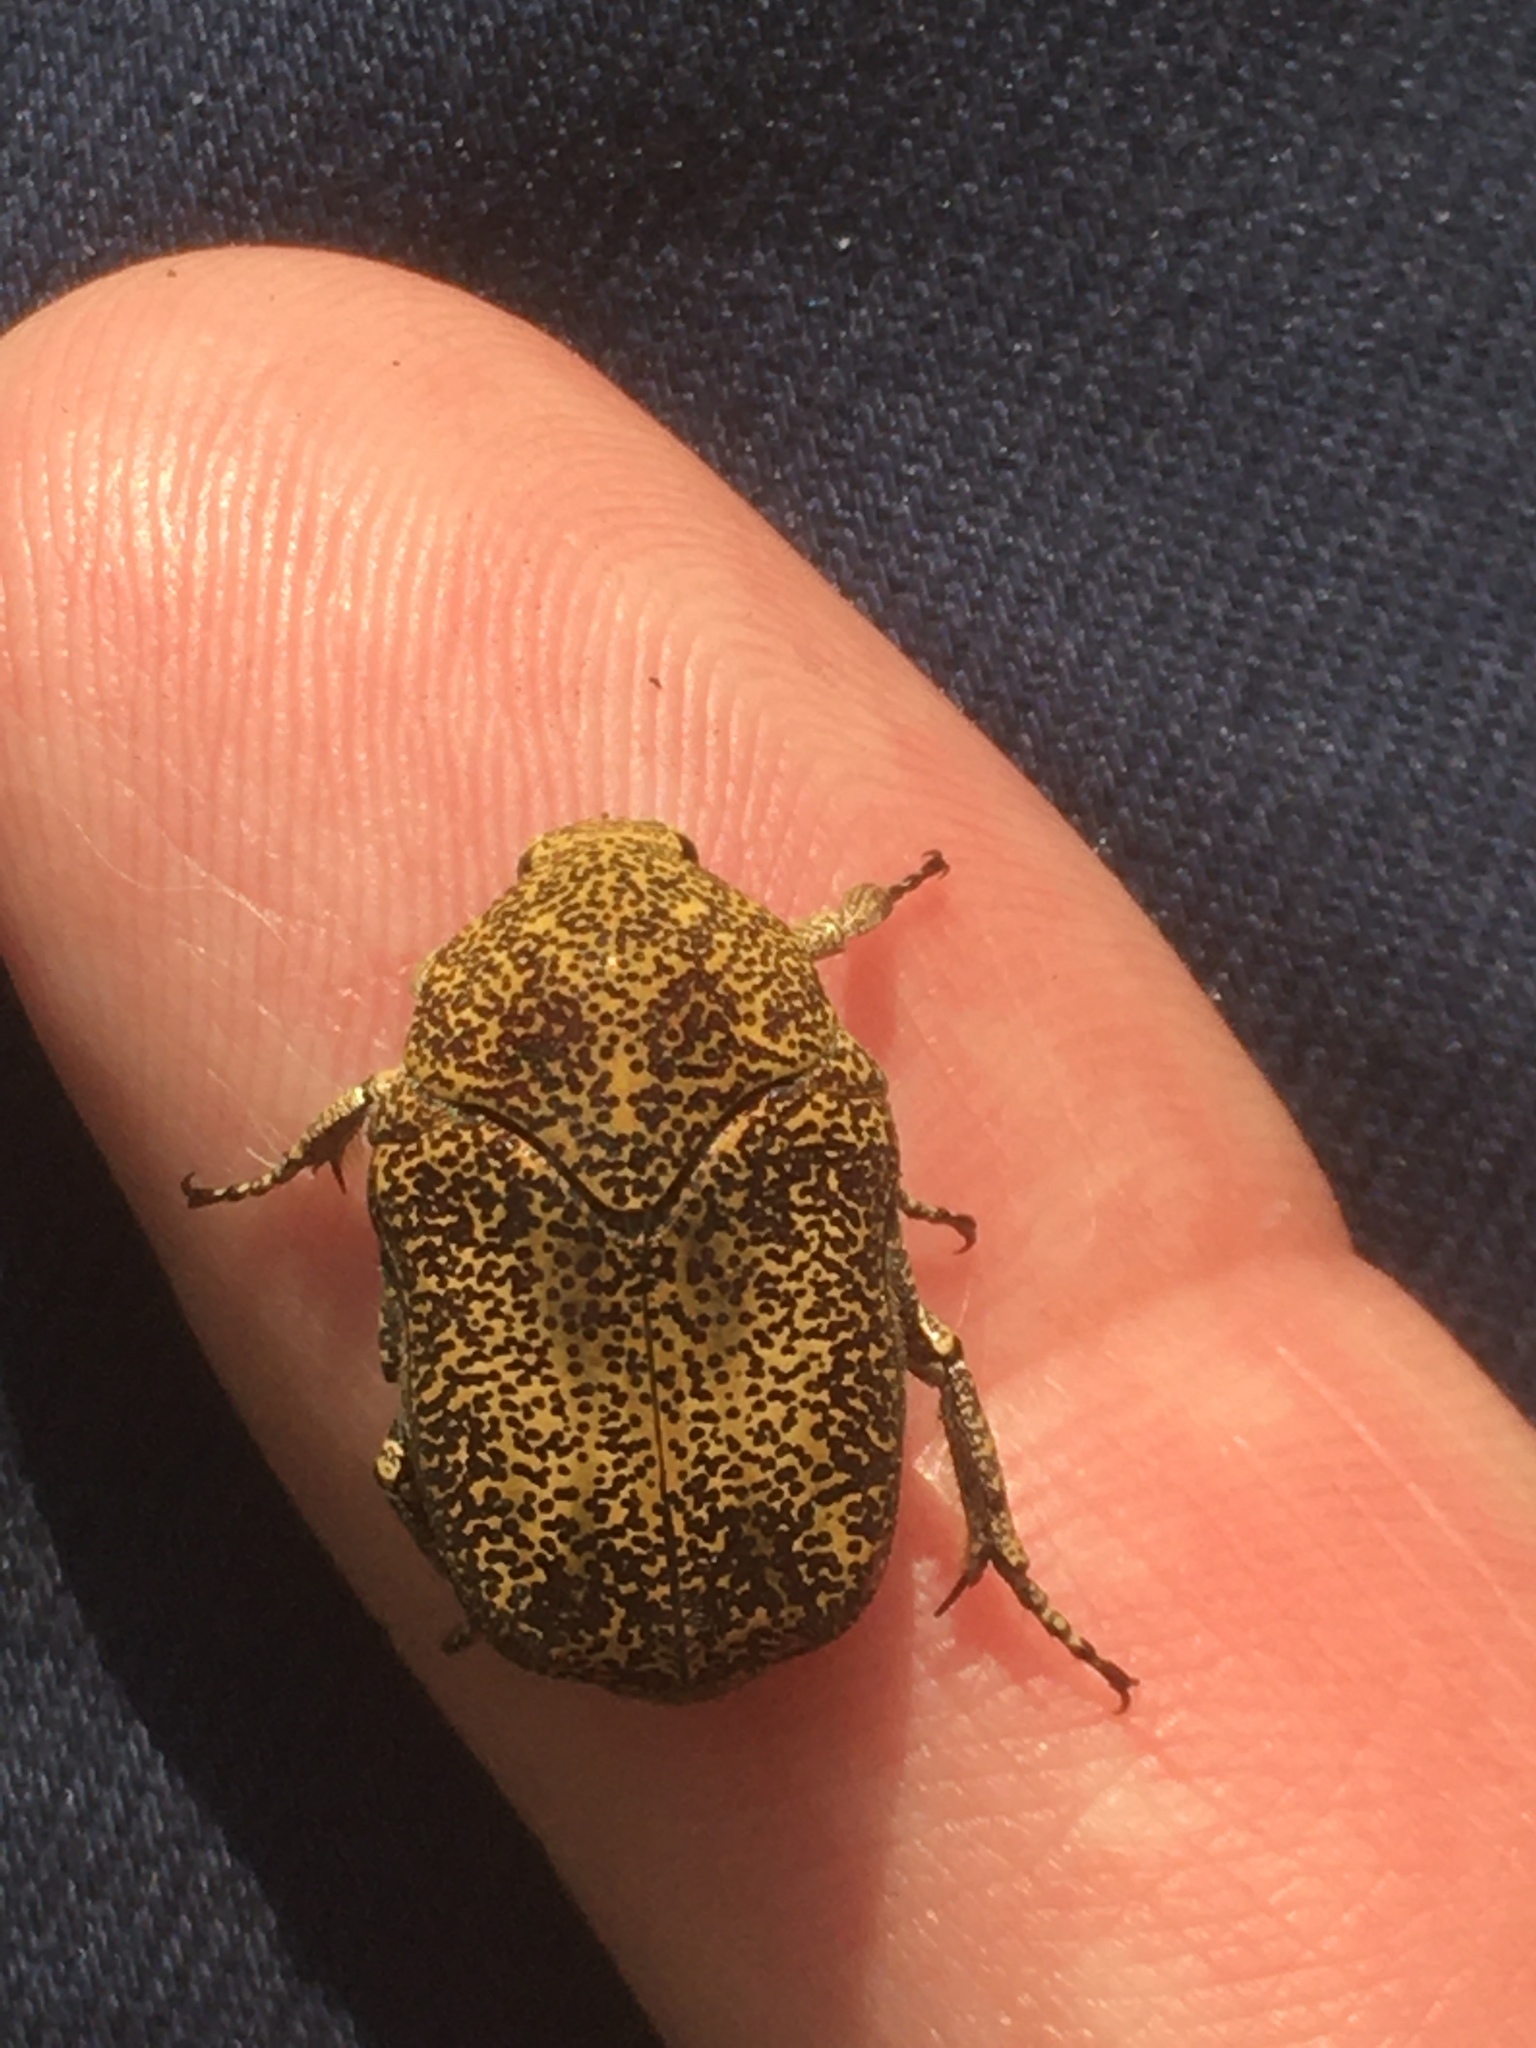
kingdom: Animalia
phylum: Arthropoda
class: Insecta
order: Coleoptera
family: Scarabaeidae
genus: Marmarina
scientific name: Marmarina maculosa
